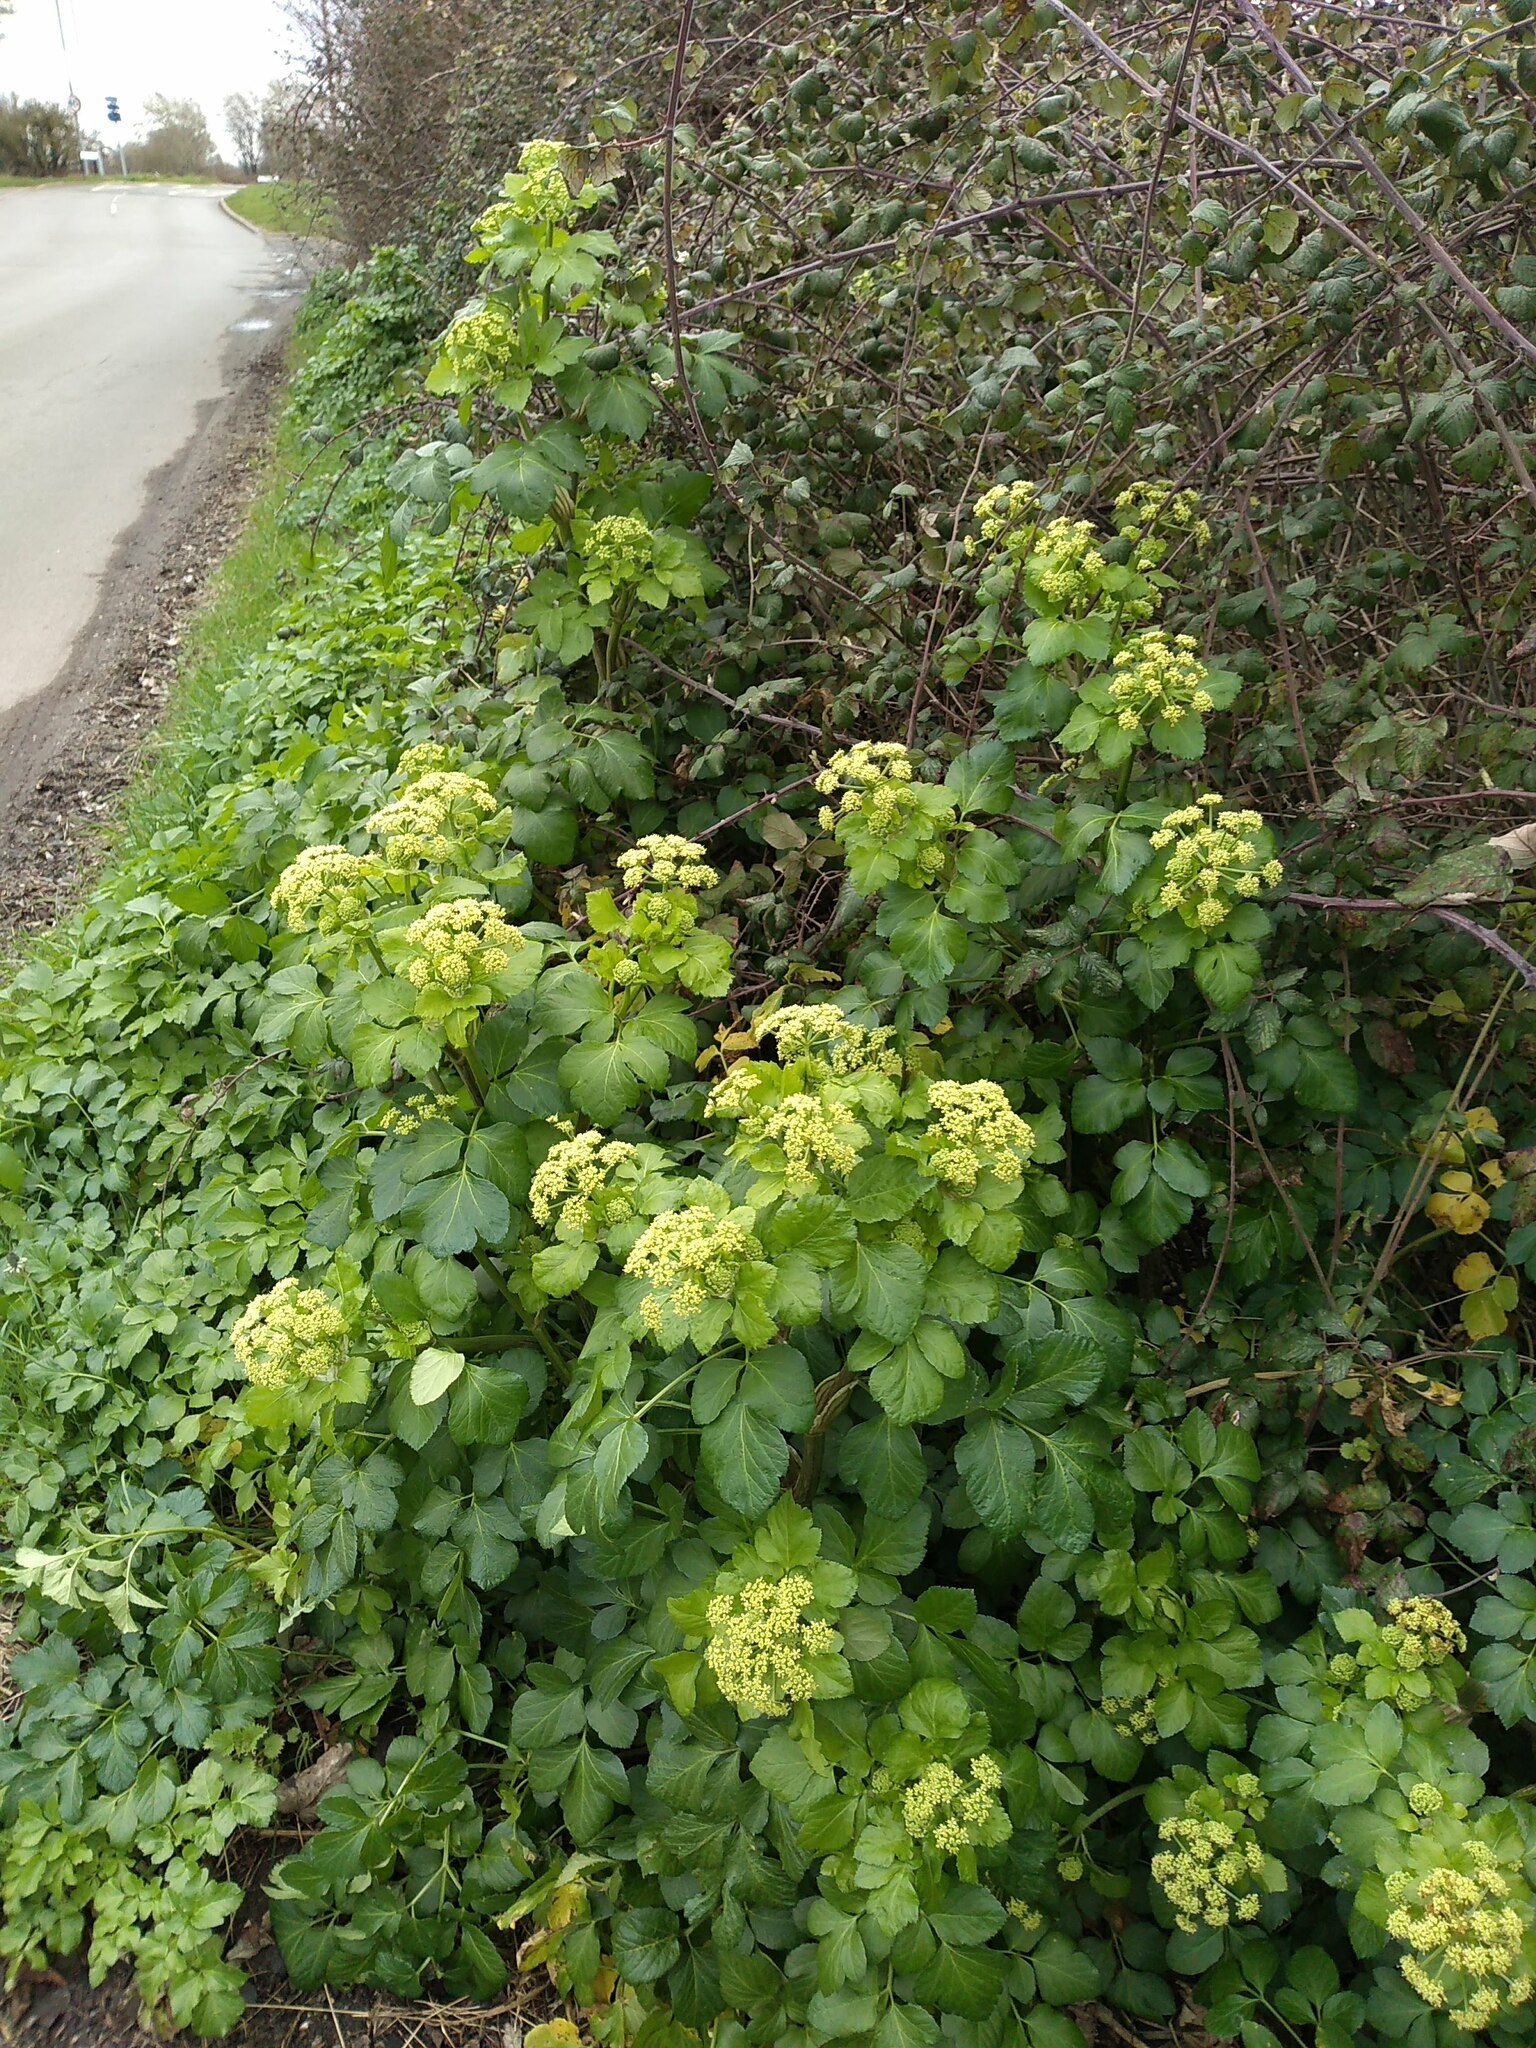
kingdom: Plantae
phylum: Tracheophyta
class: Magnoliopsida
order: Apiales
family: Apiaceae
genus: Smyrnium
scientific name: Smyrnium olusatrum
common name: Alexanders
